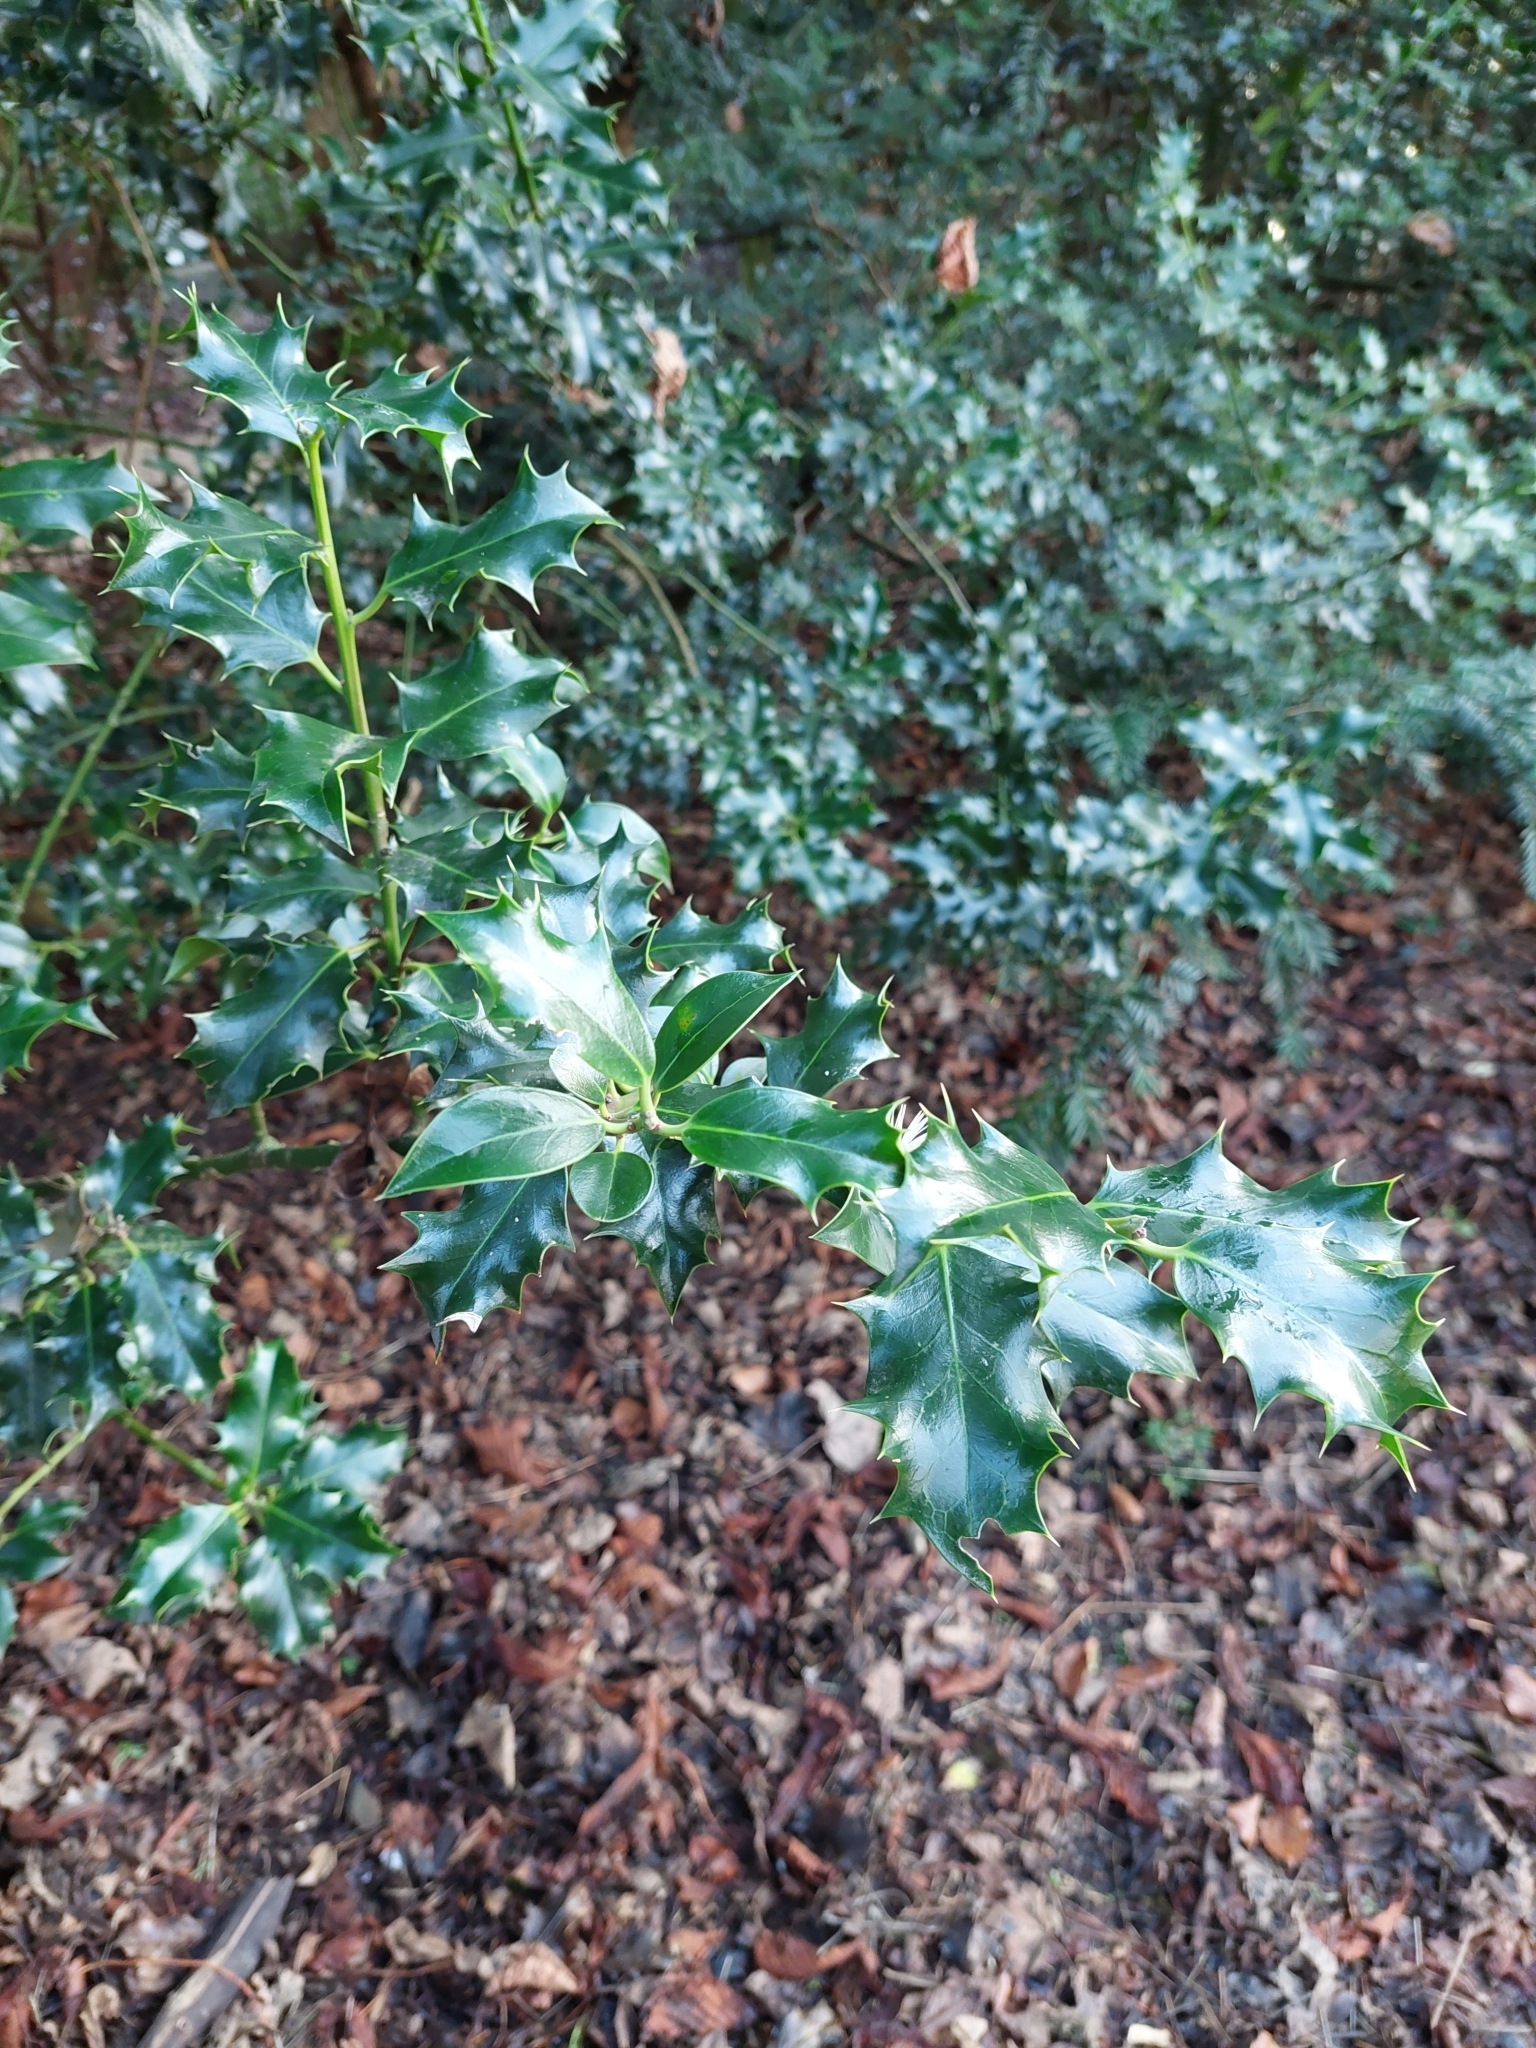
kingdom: Plantae
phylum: Tracheophyta
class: Magnoliopsida
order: Aquifoliales
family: Aquifoliaceae
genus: Ilex
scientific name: Ilex aquifolium
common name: English holly
